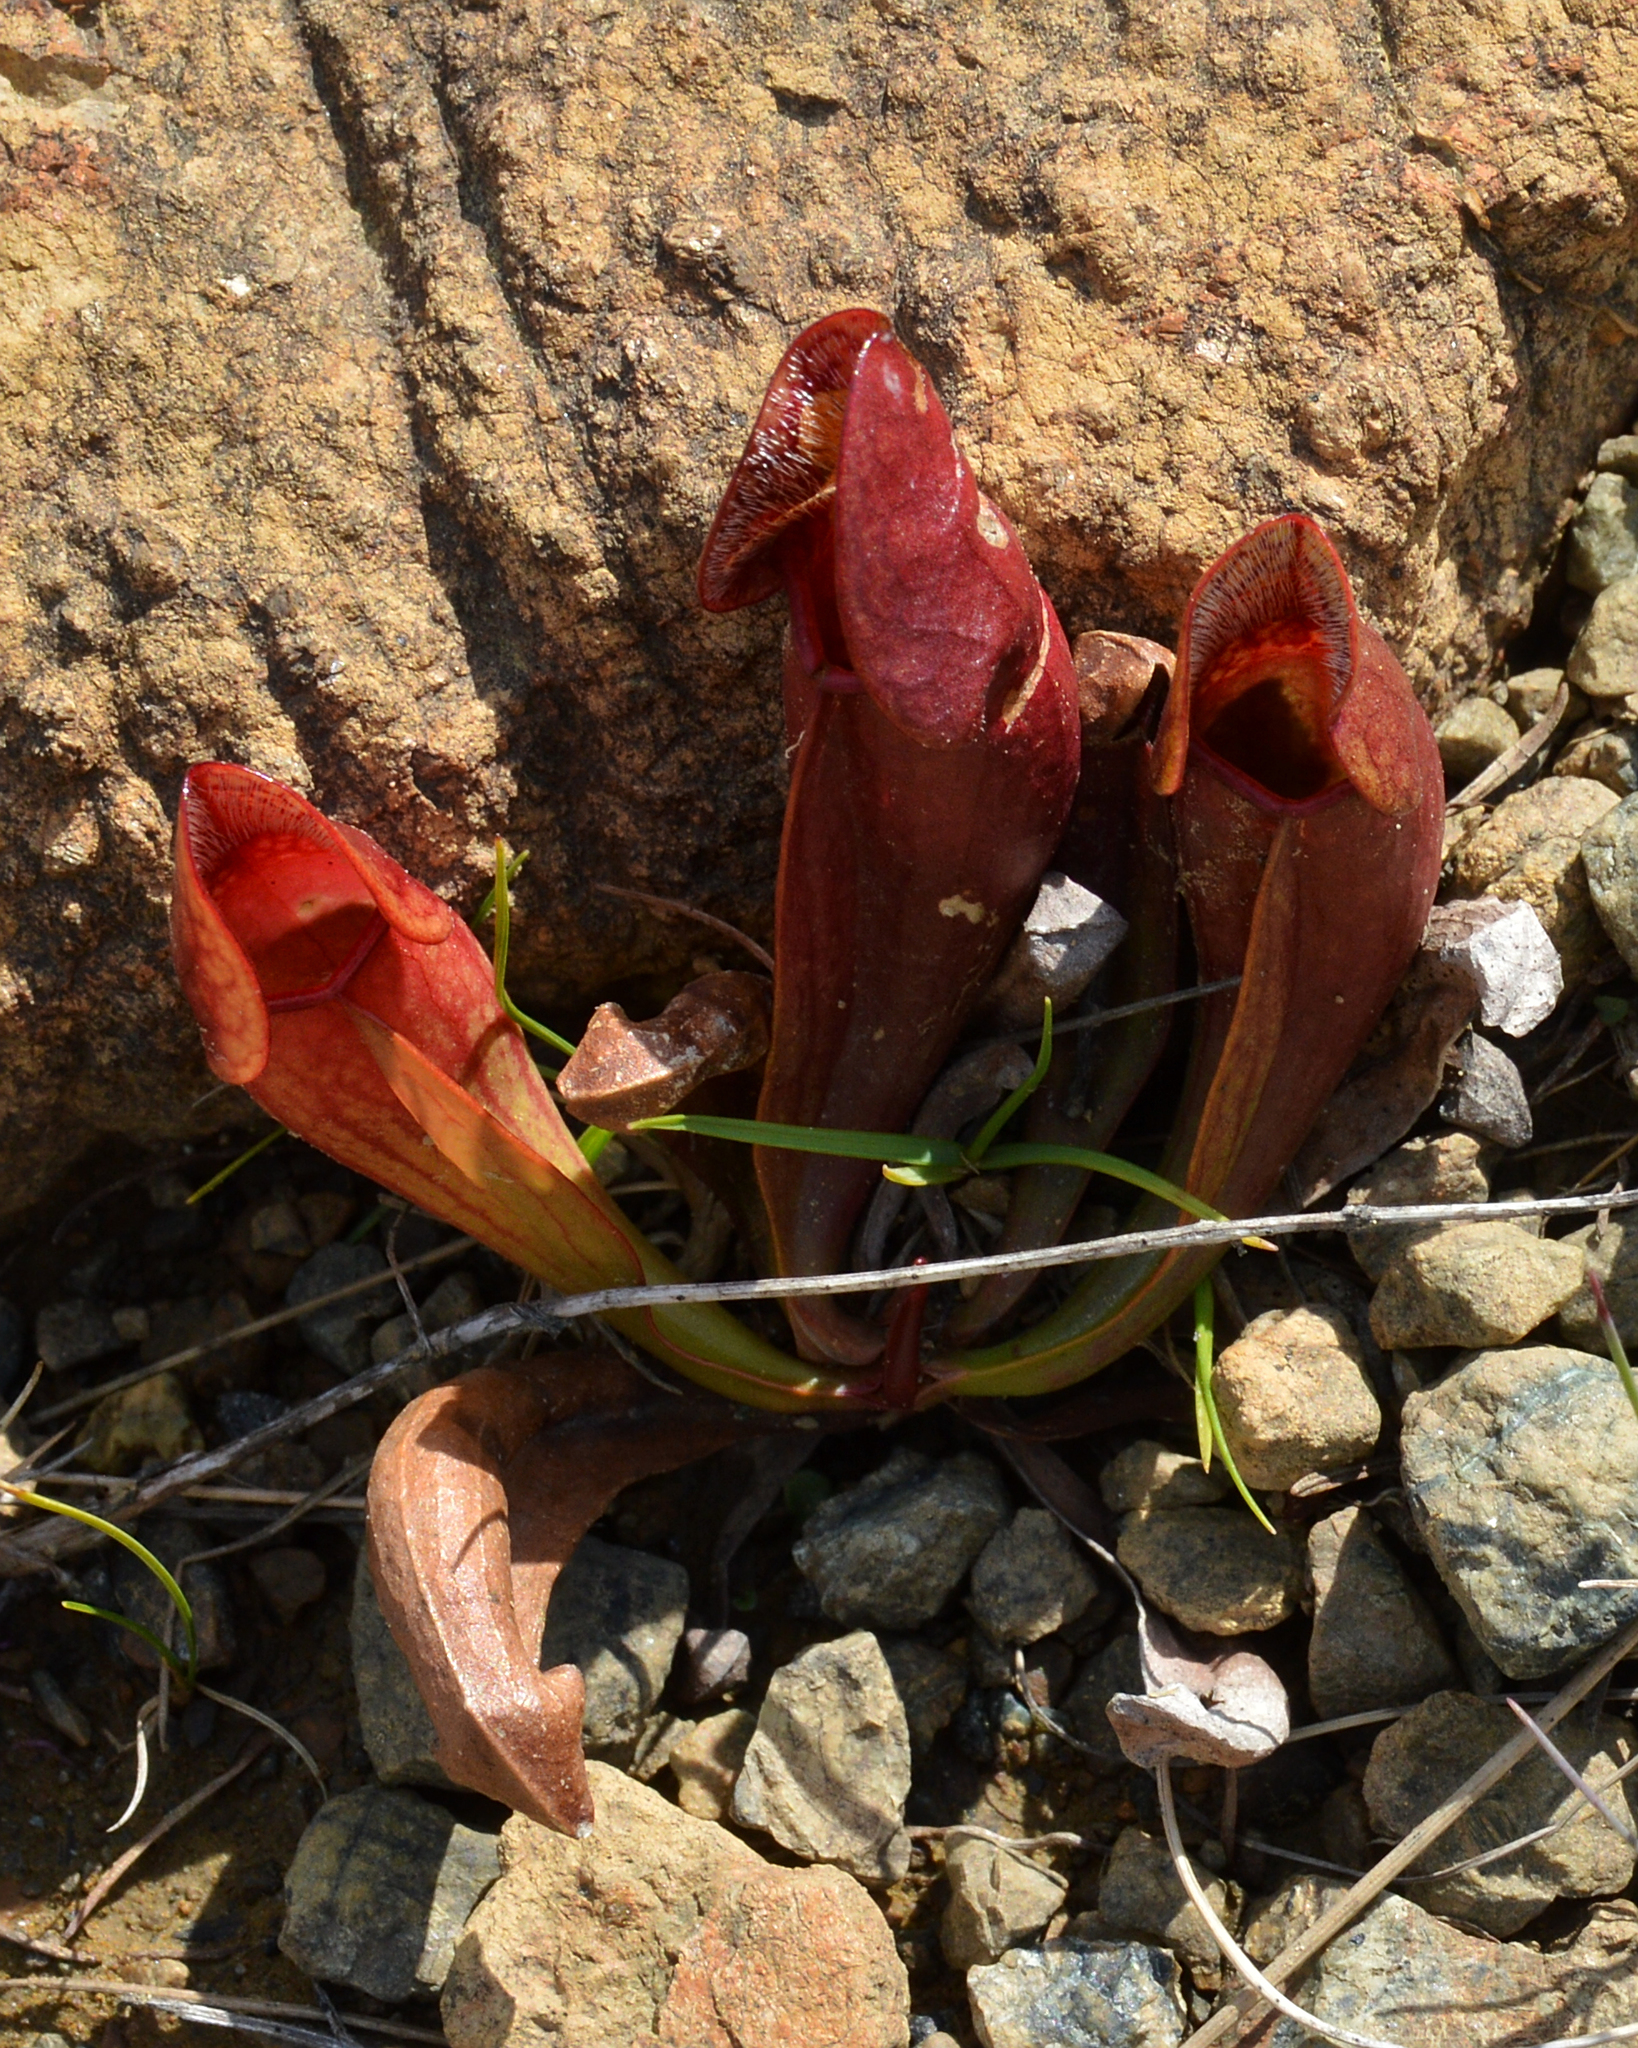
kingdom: Plantae
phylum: Tracheophyta
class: Magnoliopsida
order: Ericales
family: Sarraceniaceae
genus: Sarracenia
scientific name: Sarracenia purpurea
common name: Pitcherplant
